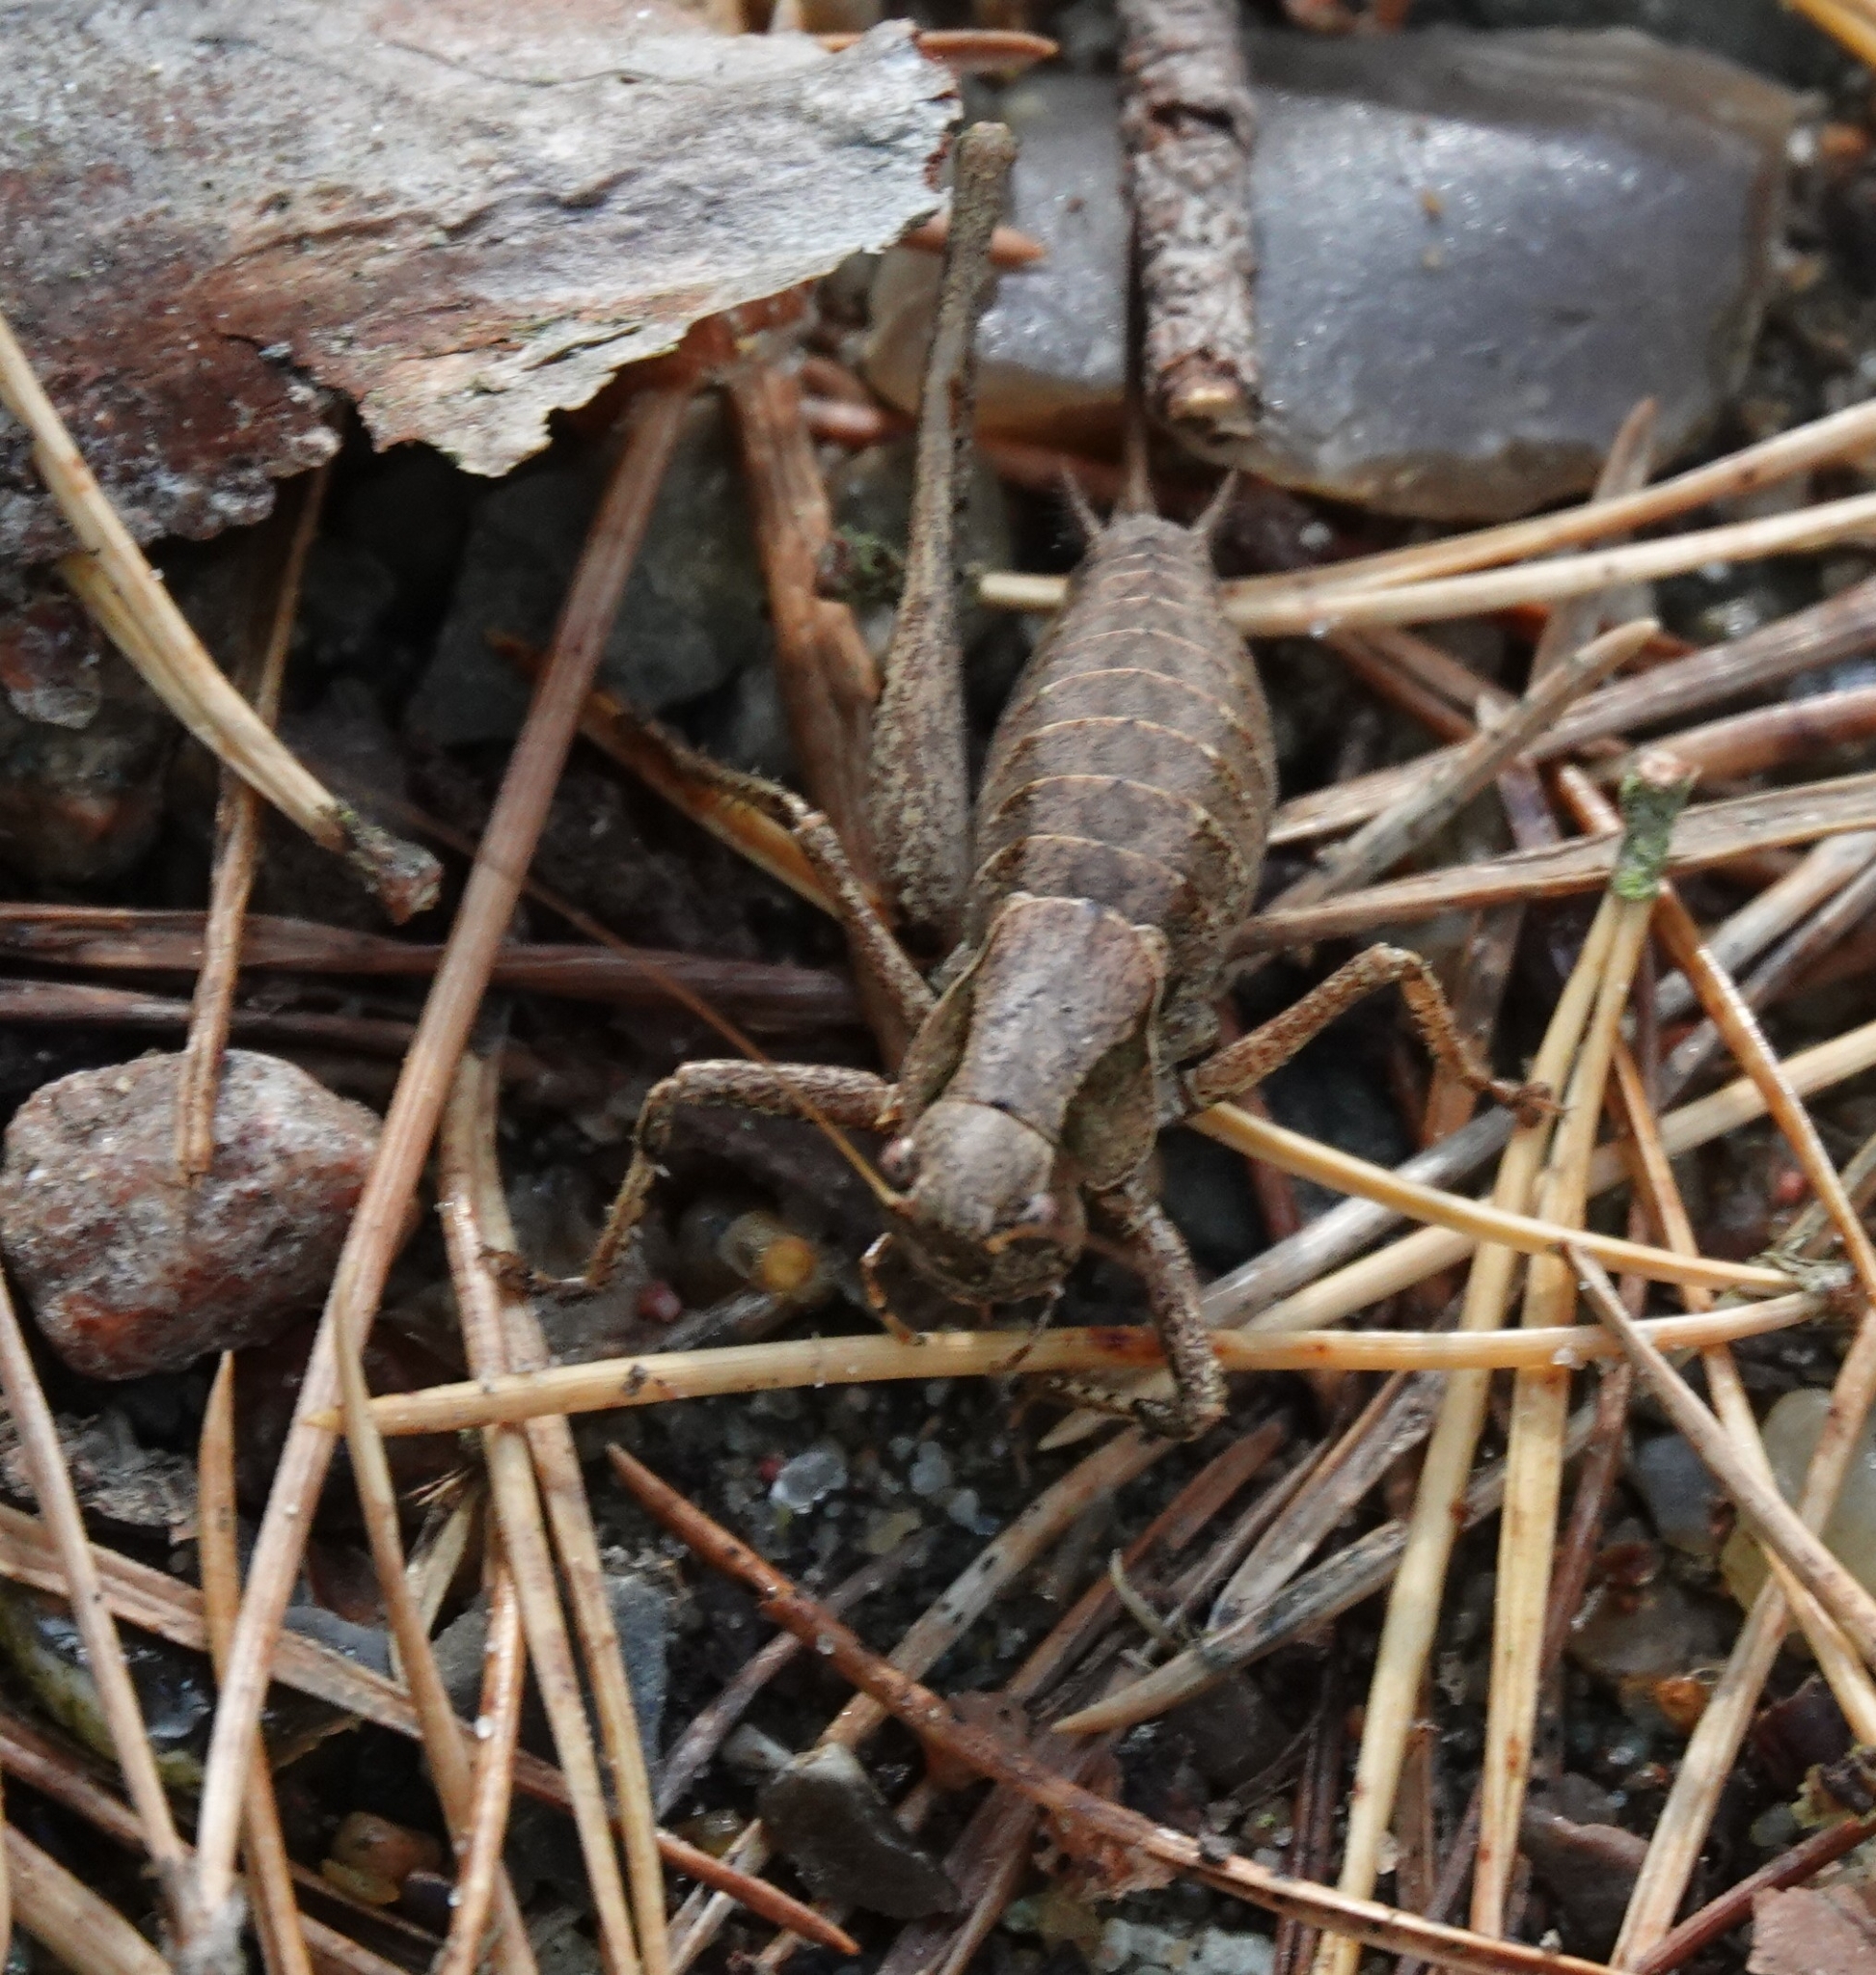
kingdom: Animalia
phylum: Arthropoda
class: Insecta
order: Orthoptera
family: Tettigoniidae
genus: Pholidoptera
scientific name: Pholidoptera griseoaptera
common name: Dark bush-cricket
